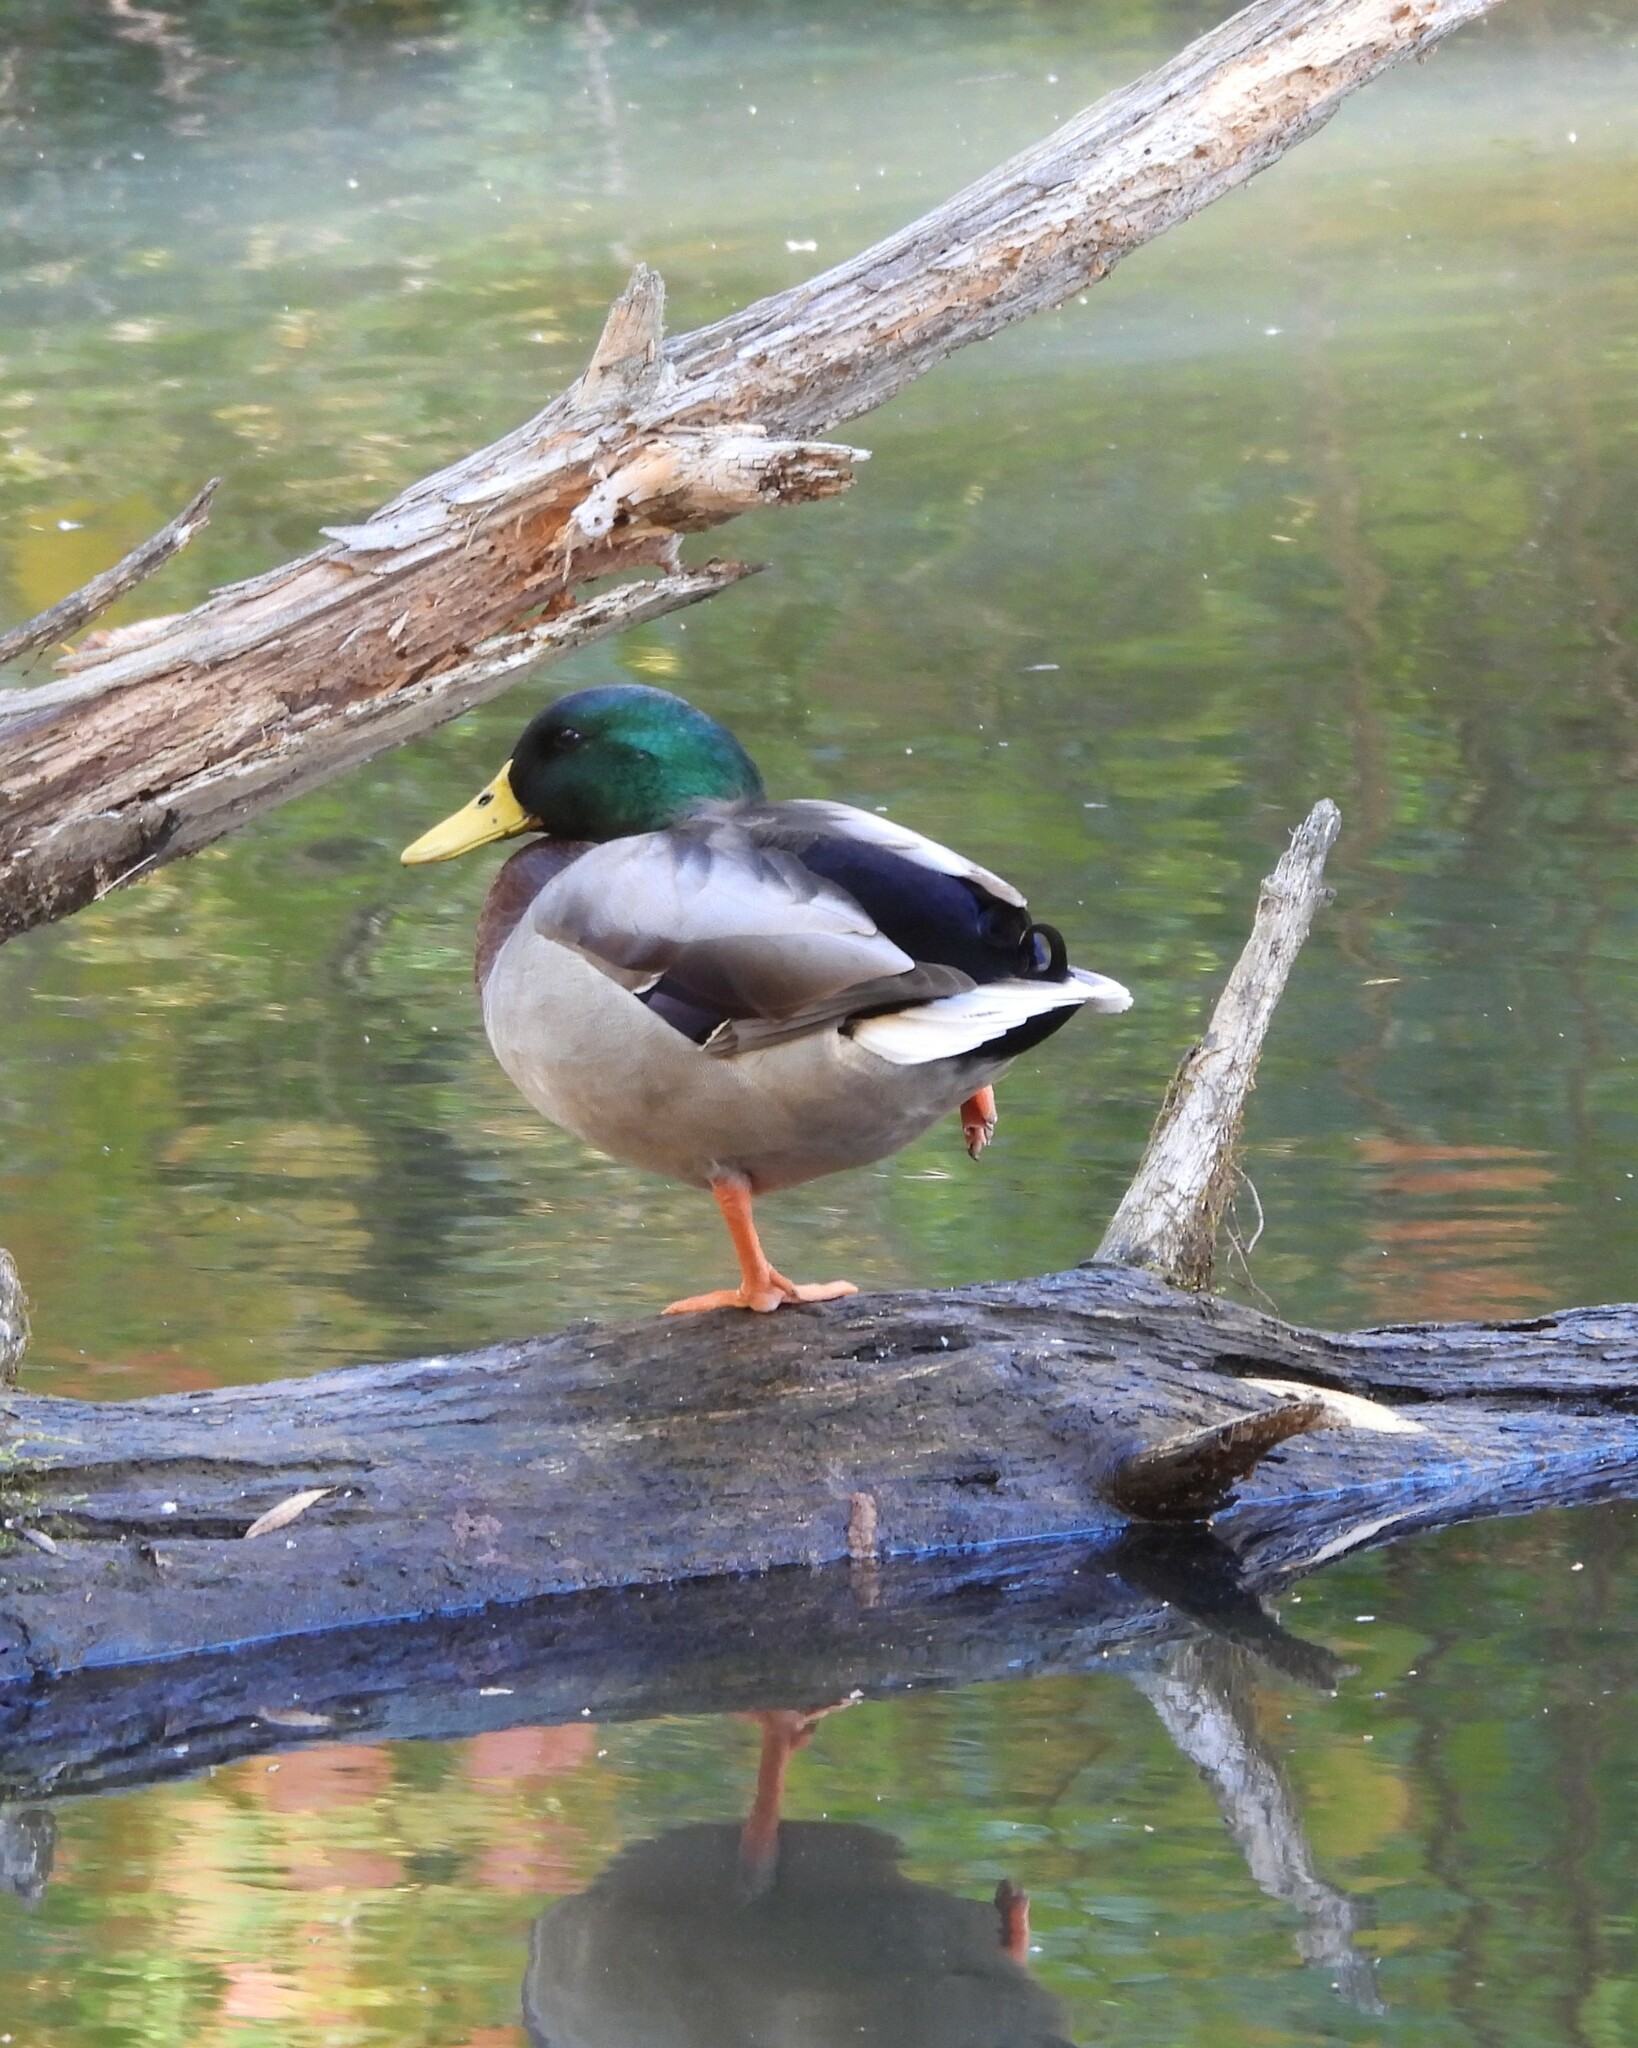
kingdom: Animalia
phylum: Chordata
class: Aves
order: Anseriformes
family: Anatidae
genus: Anas
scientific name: Anas platyrhynchos
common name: Mallard
